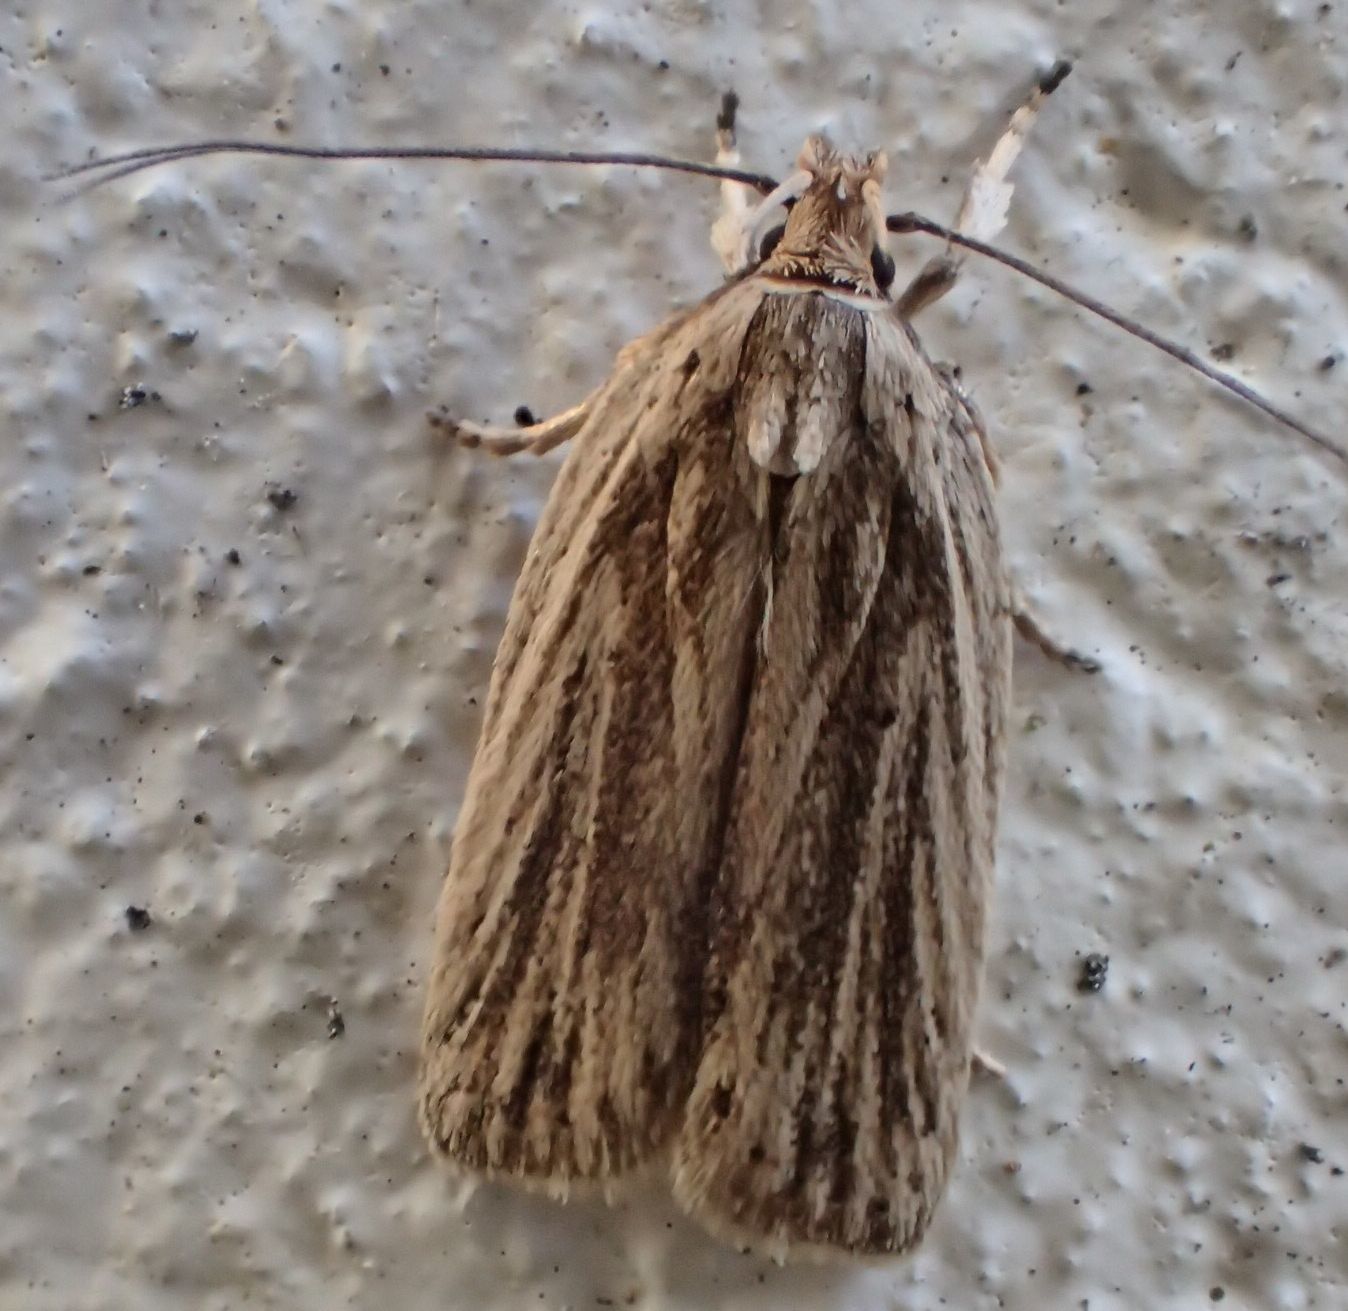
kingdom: Animalia
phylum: Arthropoda
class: Insecta
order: Lepidoptera
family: Depressariidae
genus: Agonopterix
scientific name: Agonopterix
